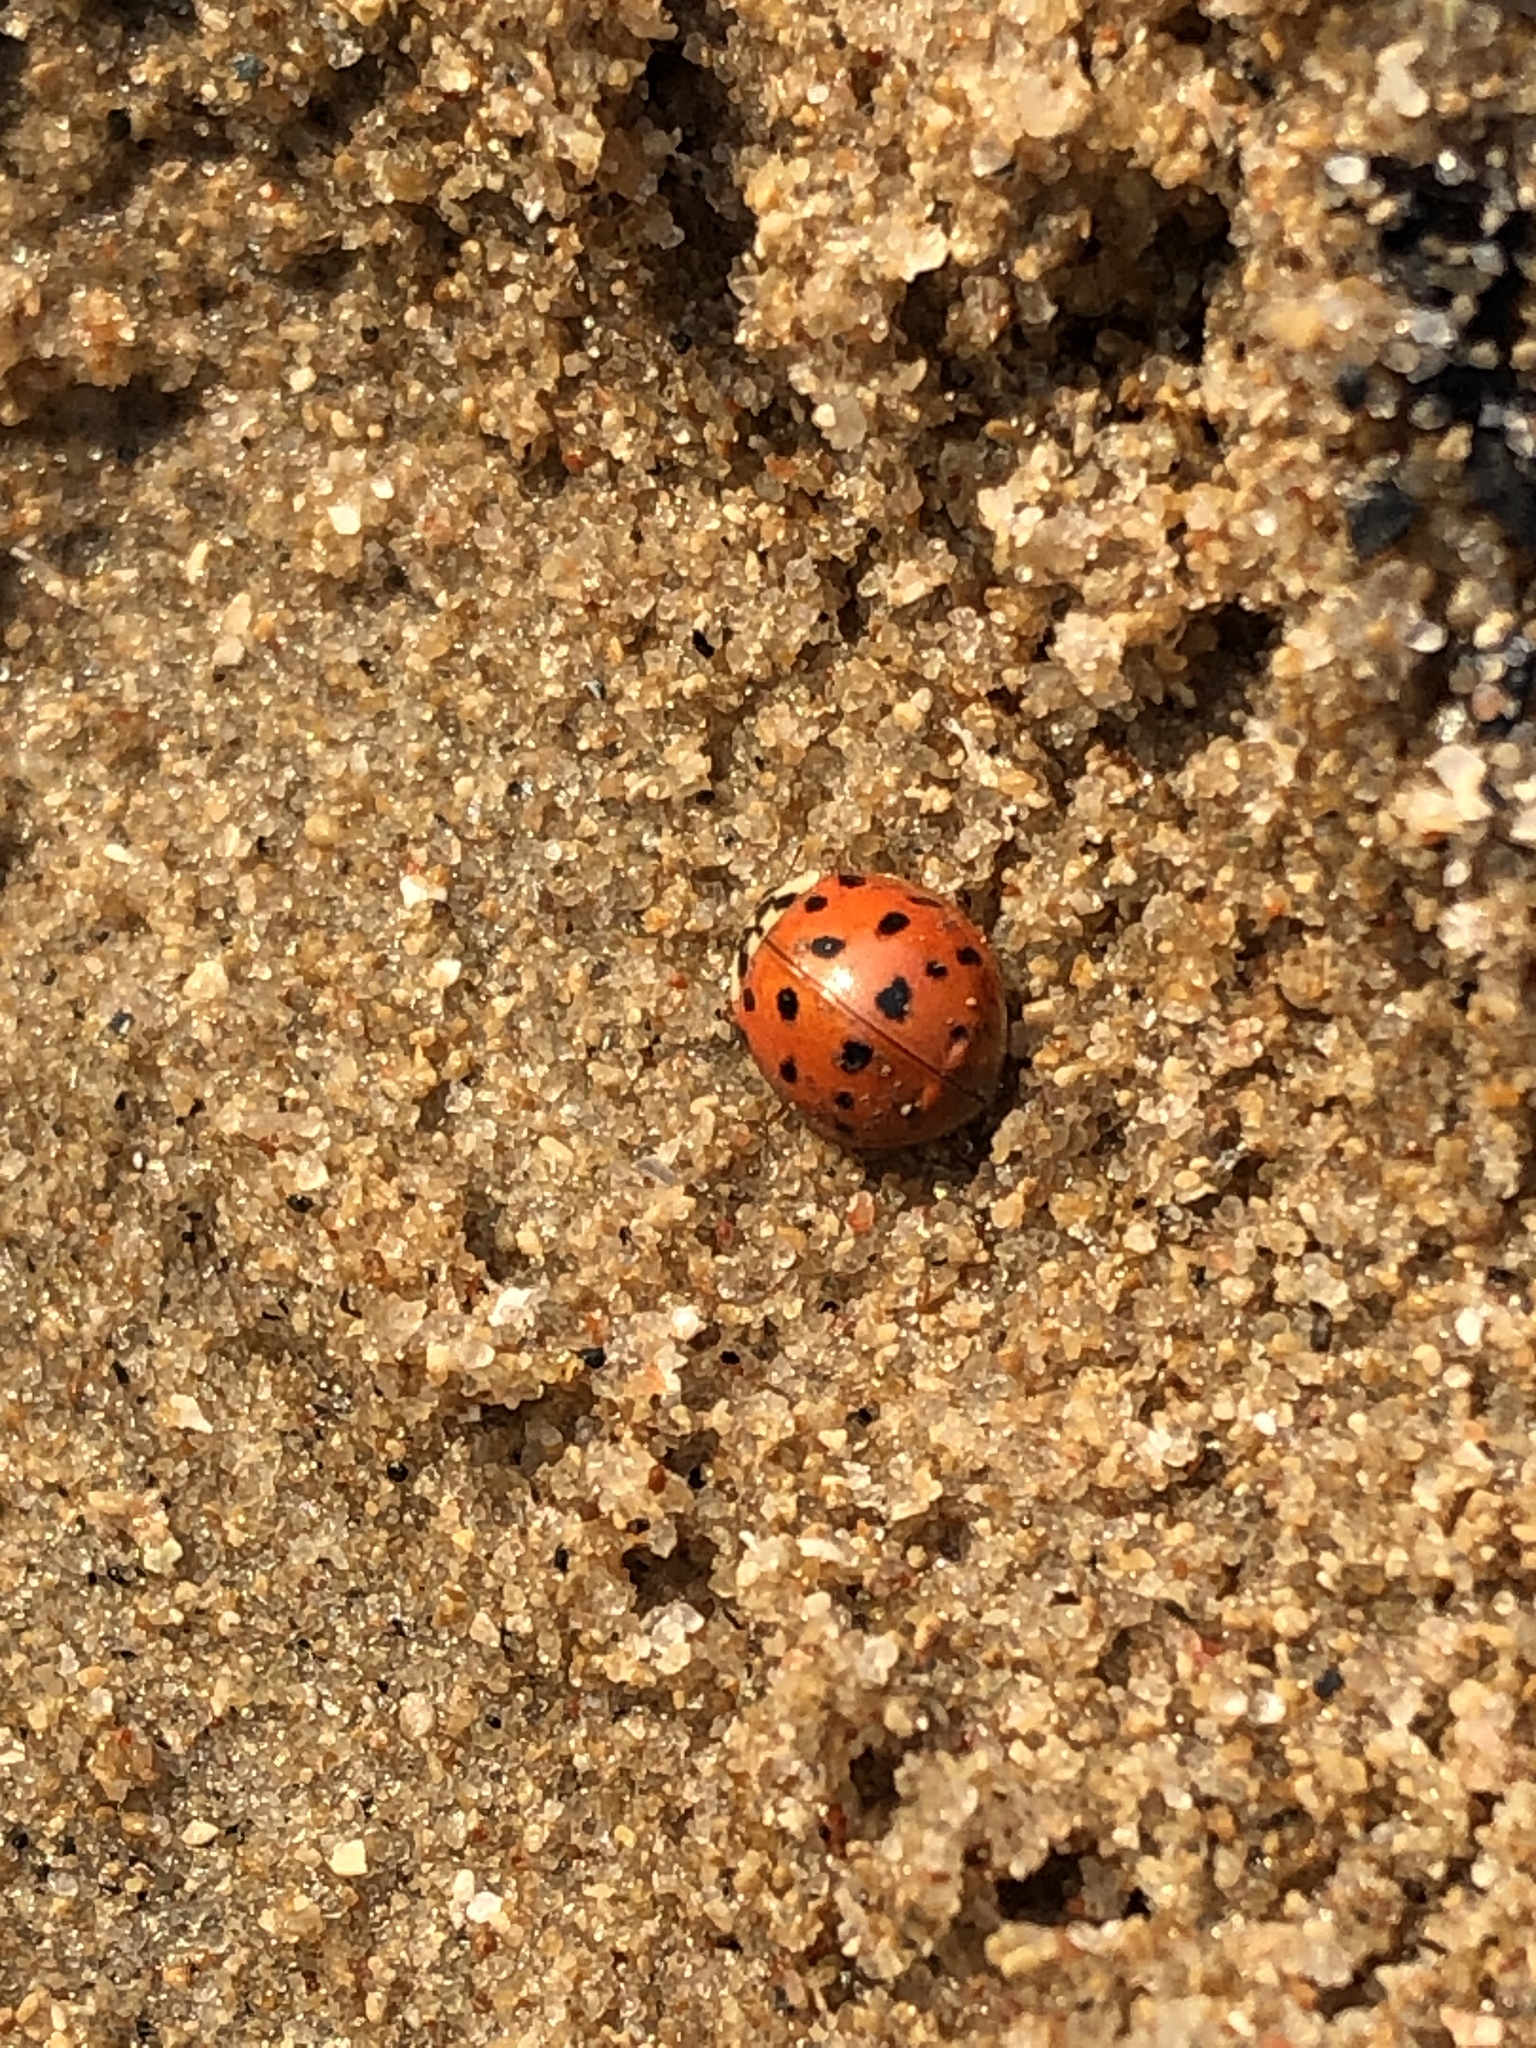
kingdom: Animalia
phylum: Arthropoda
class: Insecta
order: Coleoptera
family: Coccinellidae
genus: Harmonia
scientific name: Harmonia axyridis
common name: Harlequin ladybird
